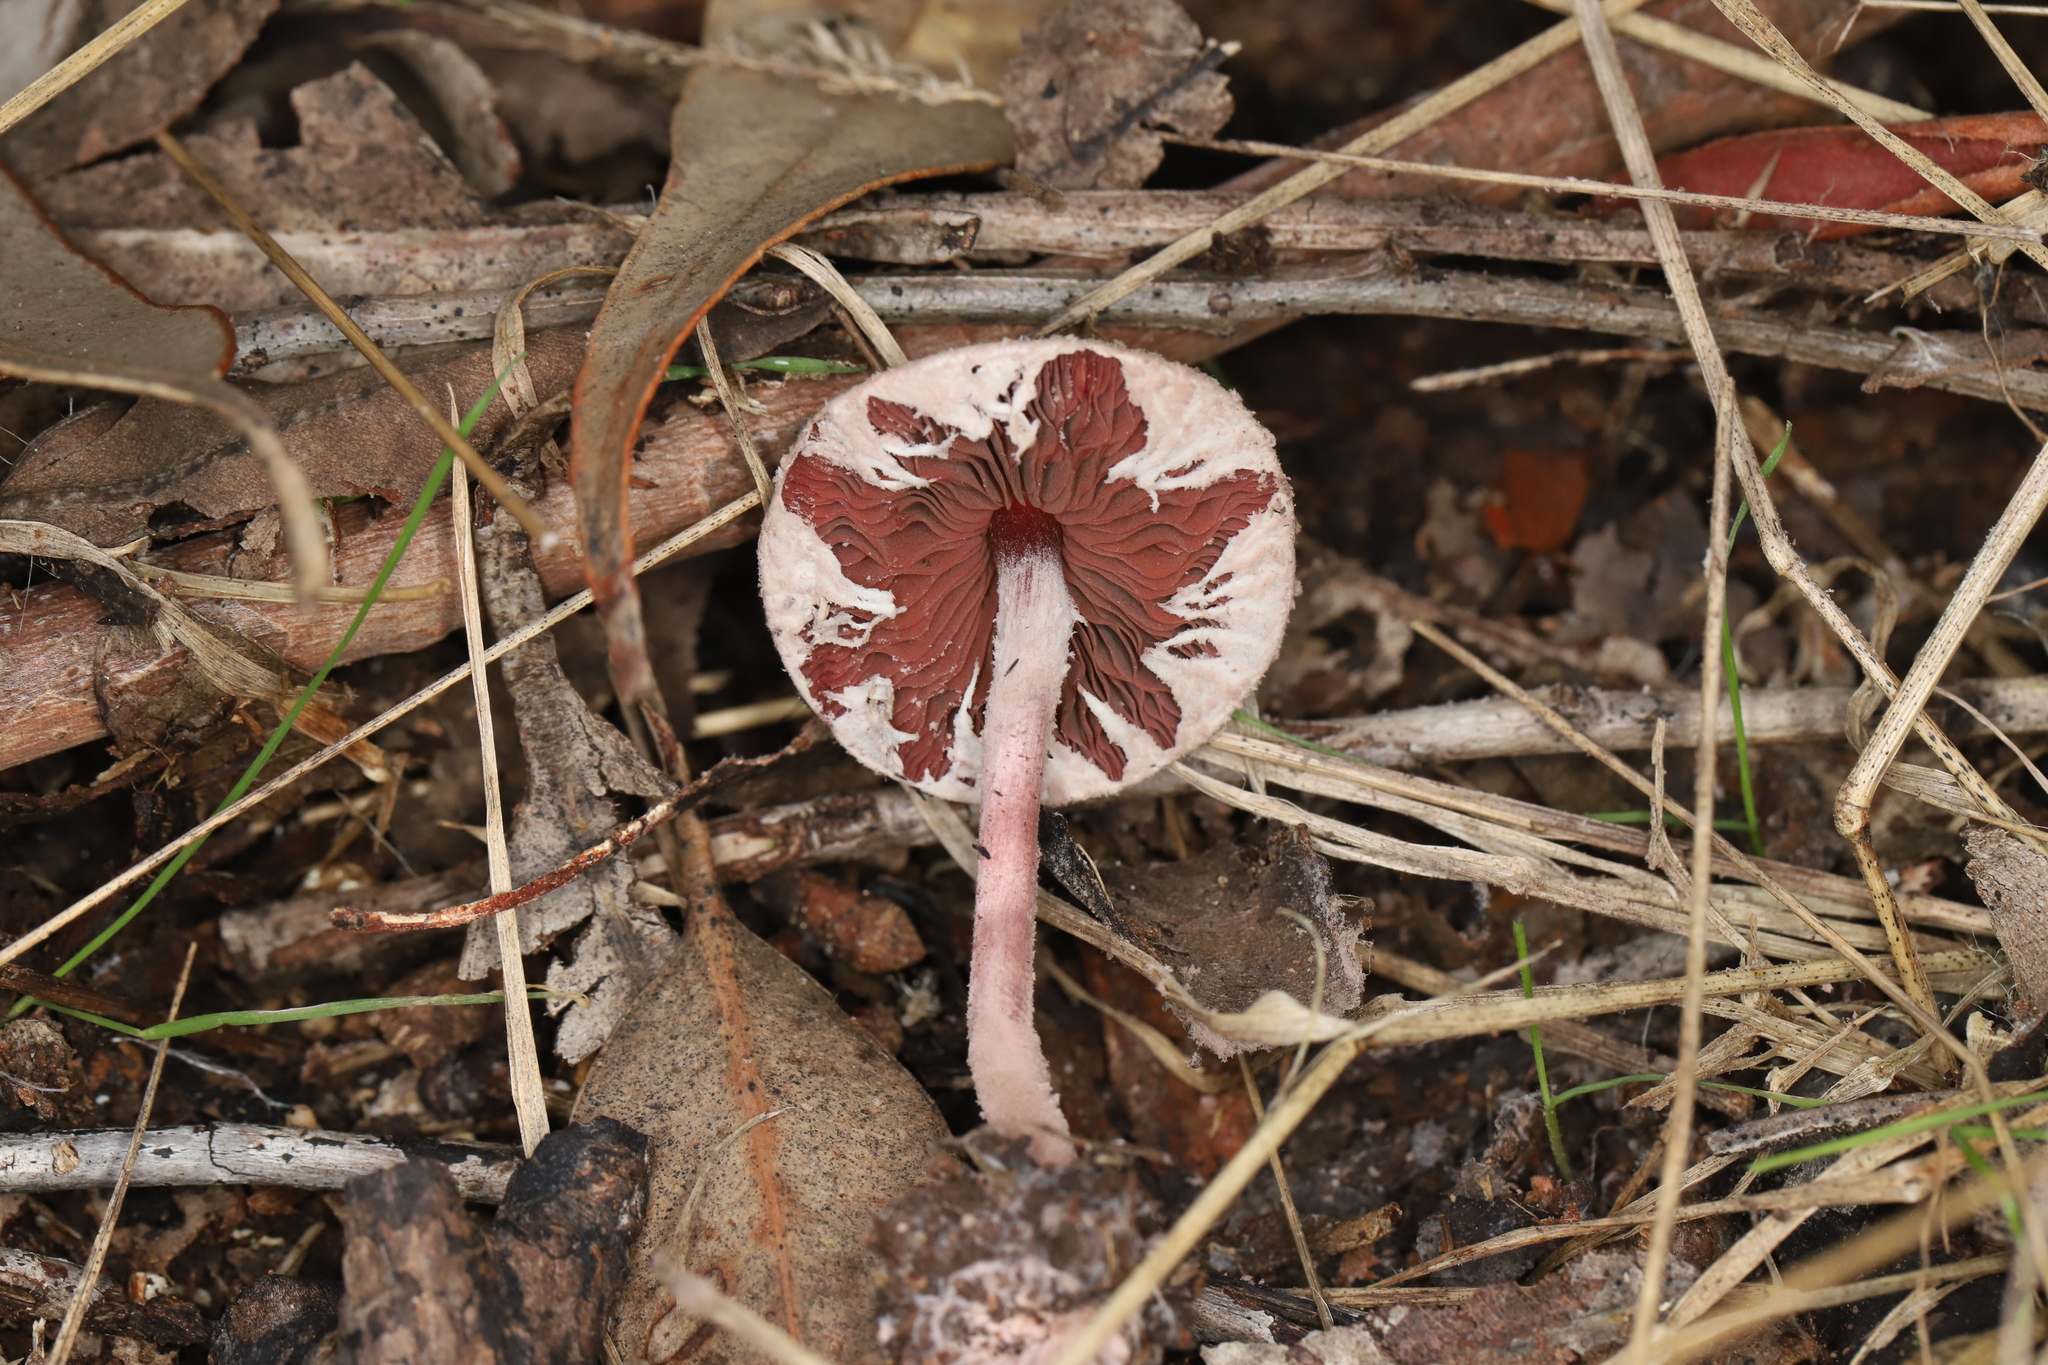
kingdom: Fungi
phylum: Basidiomycota
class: Agaricomycetes
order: Agaricales
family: Agaricaceae
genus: Melanophyllum
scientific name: Melanophyllum haematospermum
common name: Redspored dapperling
